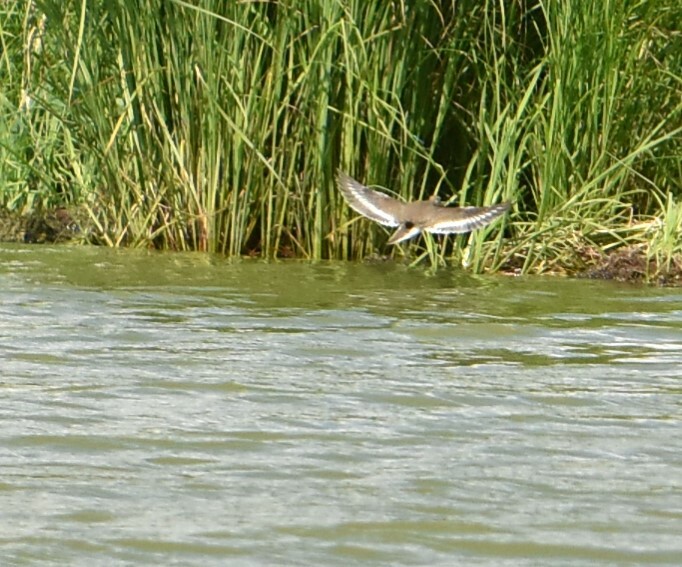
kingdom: Animalia
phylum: Chordata
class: Aves
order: Charadriiformes
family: Scolopacidae
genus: Actitis
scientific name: Actitis hypoleucos
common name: Common sandpiper
